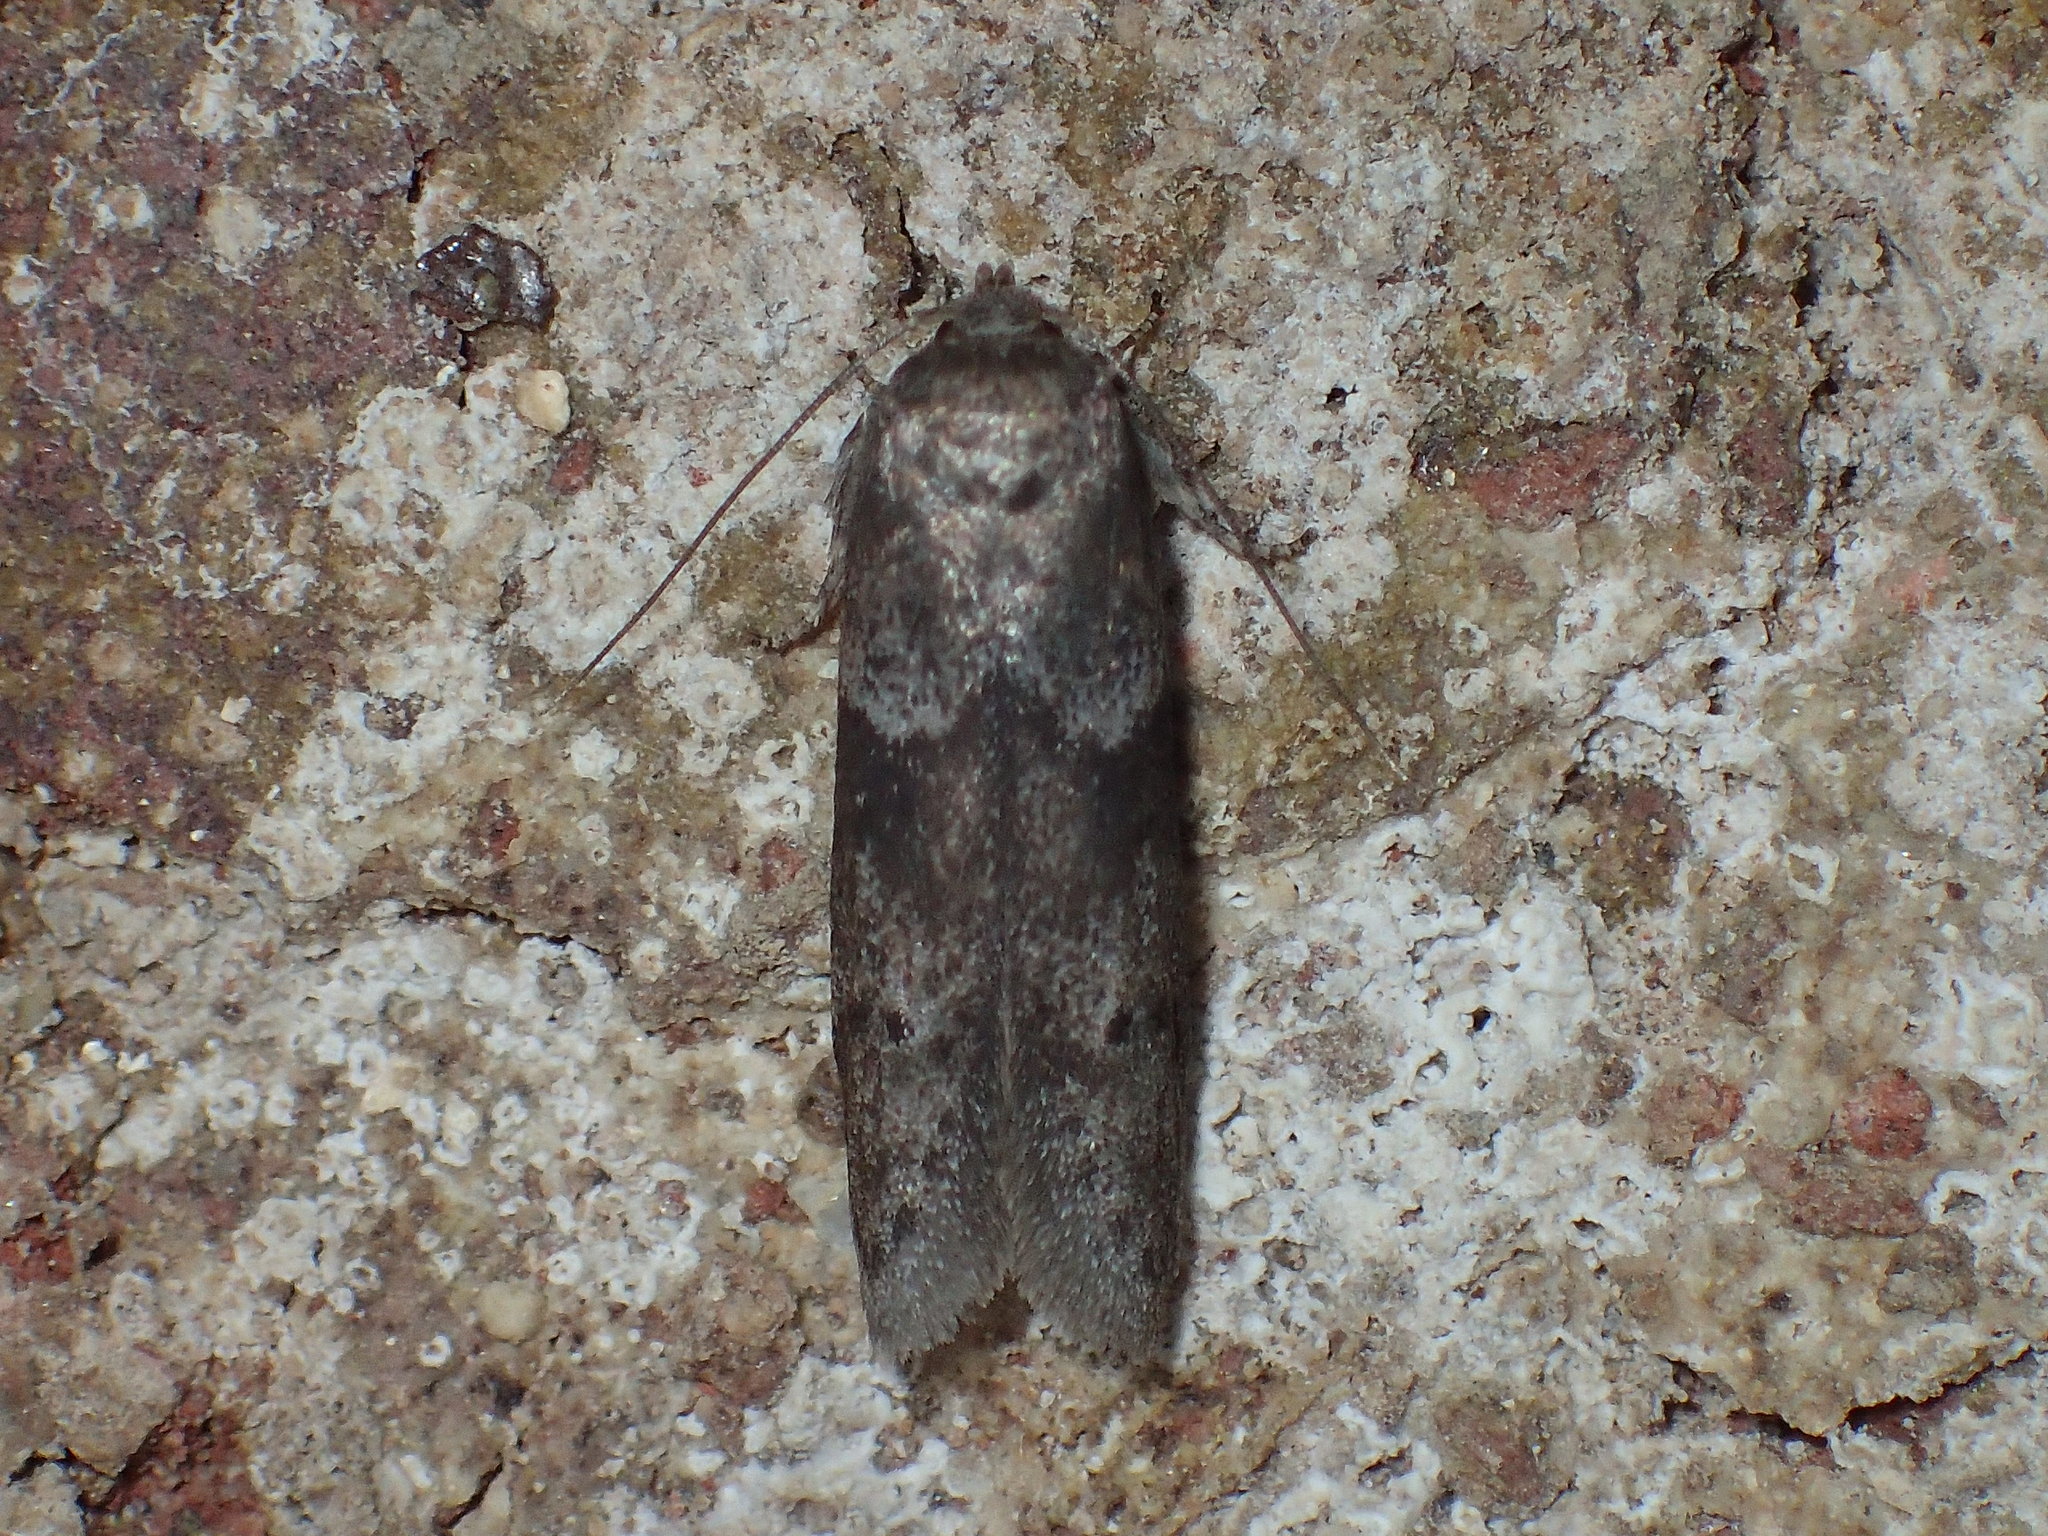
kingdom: Animalia
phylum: Arthropoda
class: Insecta
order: Lepidoptera
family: Blastobasidae
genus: Blastobasis
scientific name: Blastobasis glandulella
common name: Acorn moth
